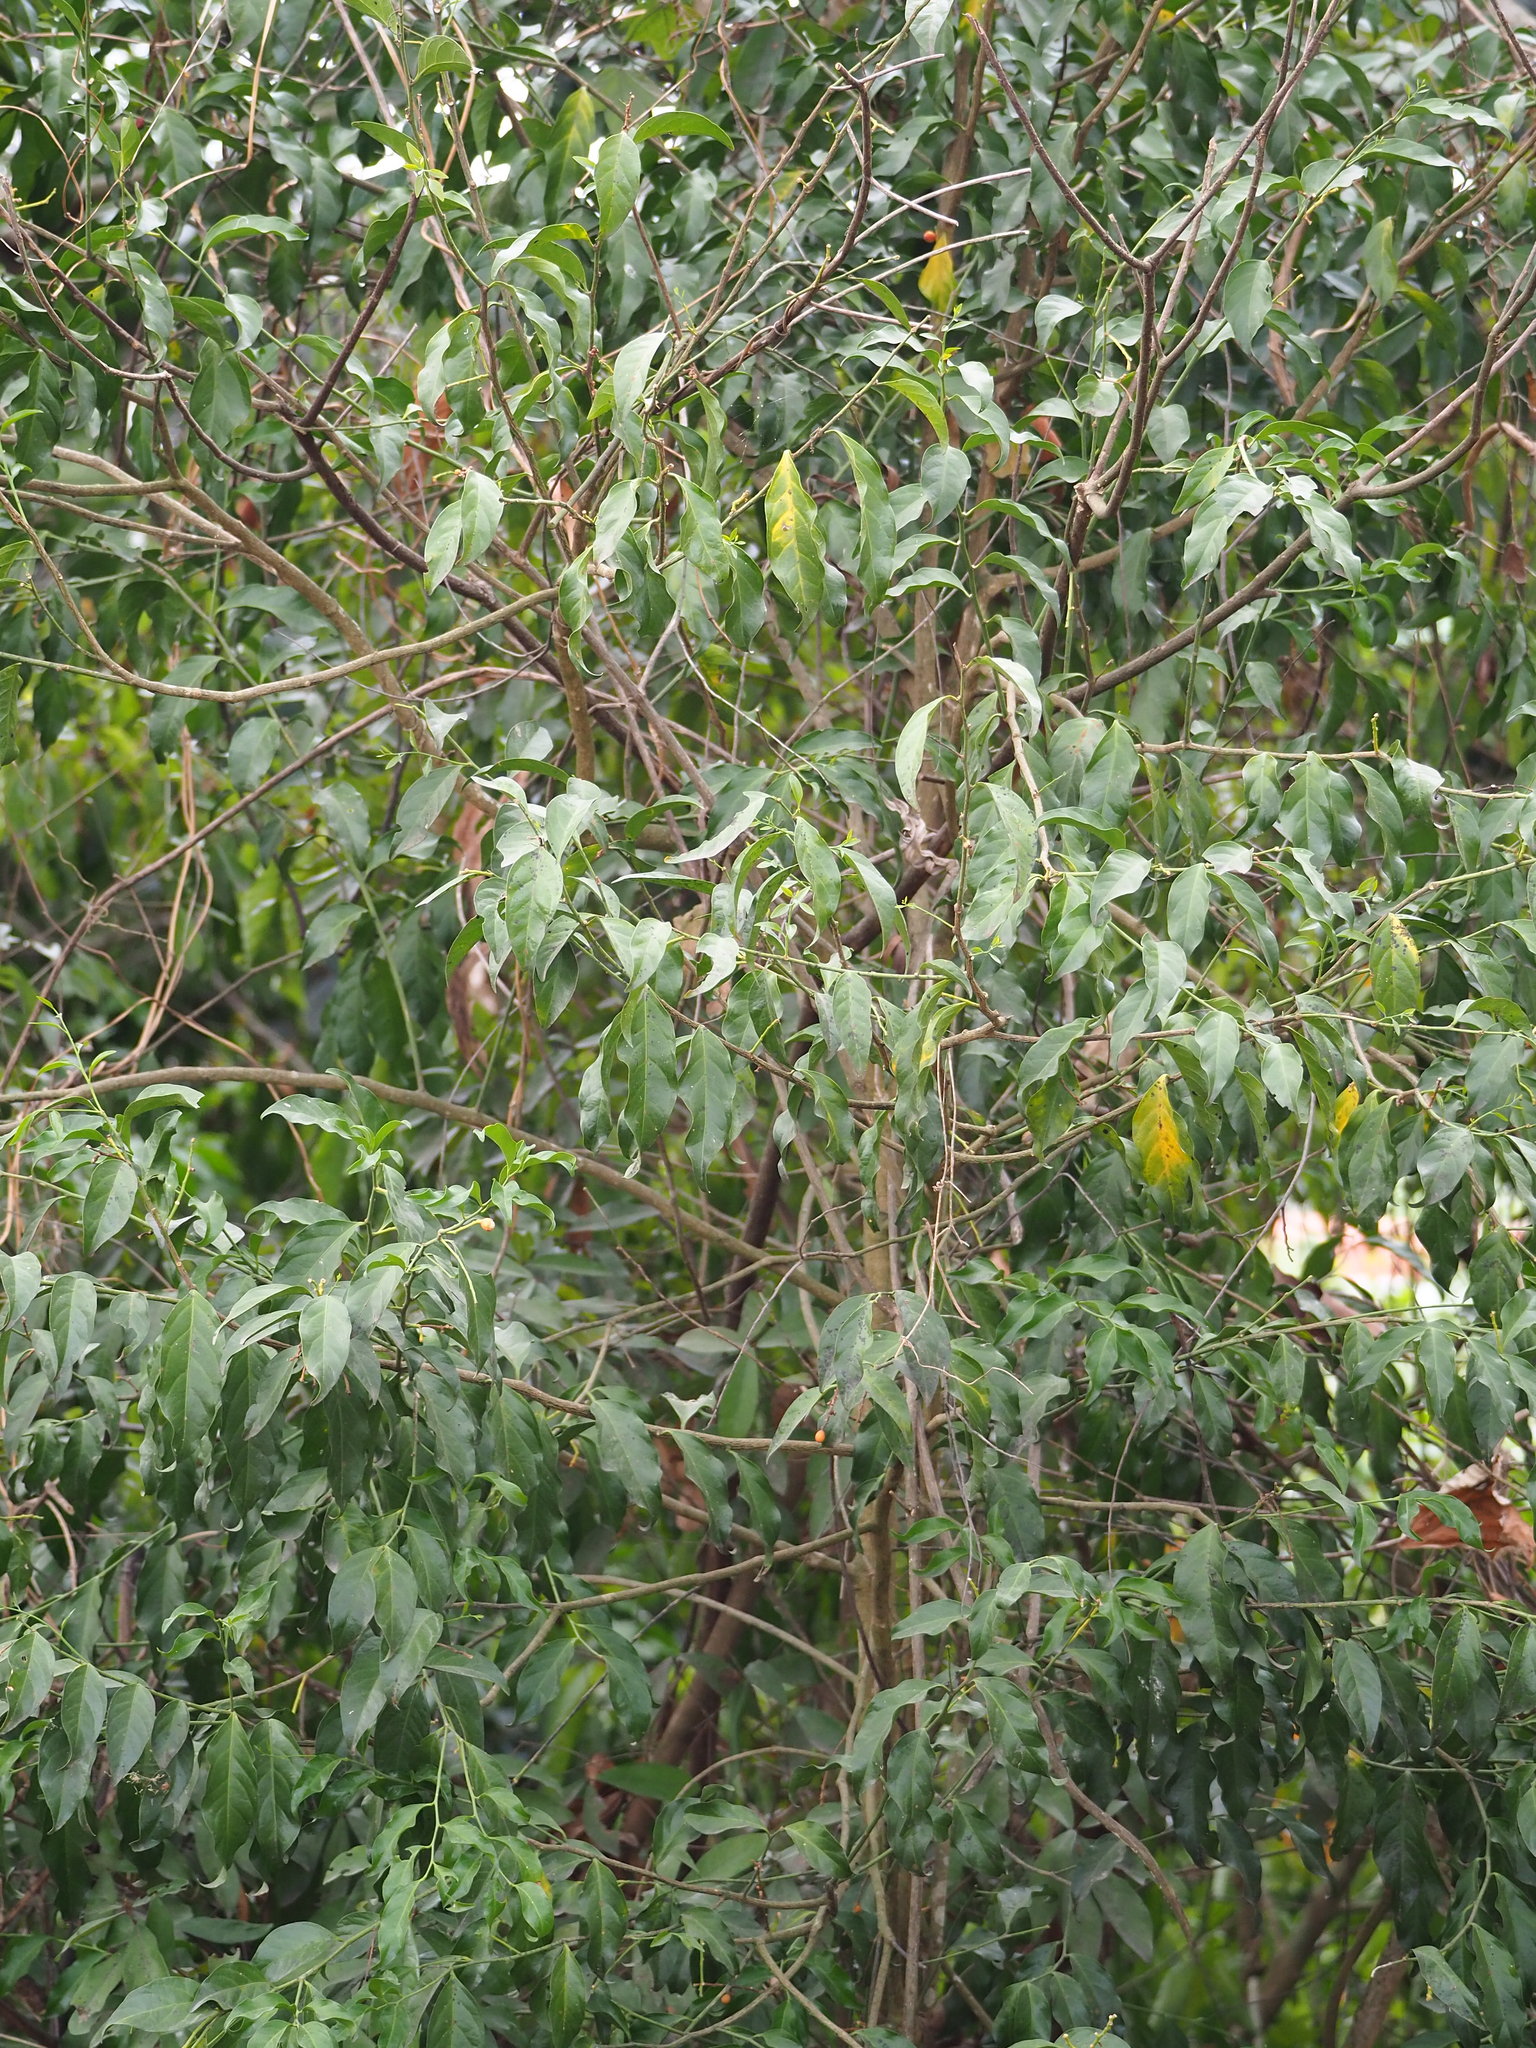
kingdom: Plantae
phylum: Tracheophyta
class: Magnoliopsida
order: Santalales
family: Opiliaceae
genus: Champereia
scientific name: Champereia manillana
